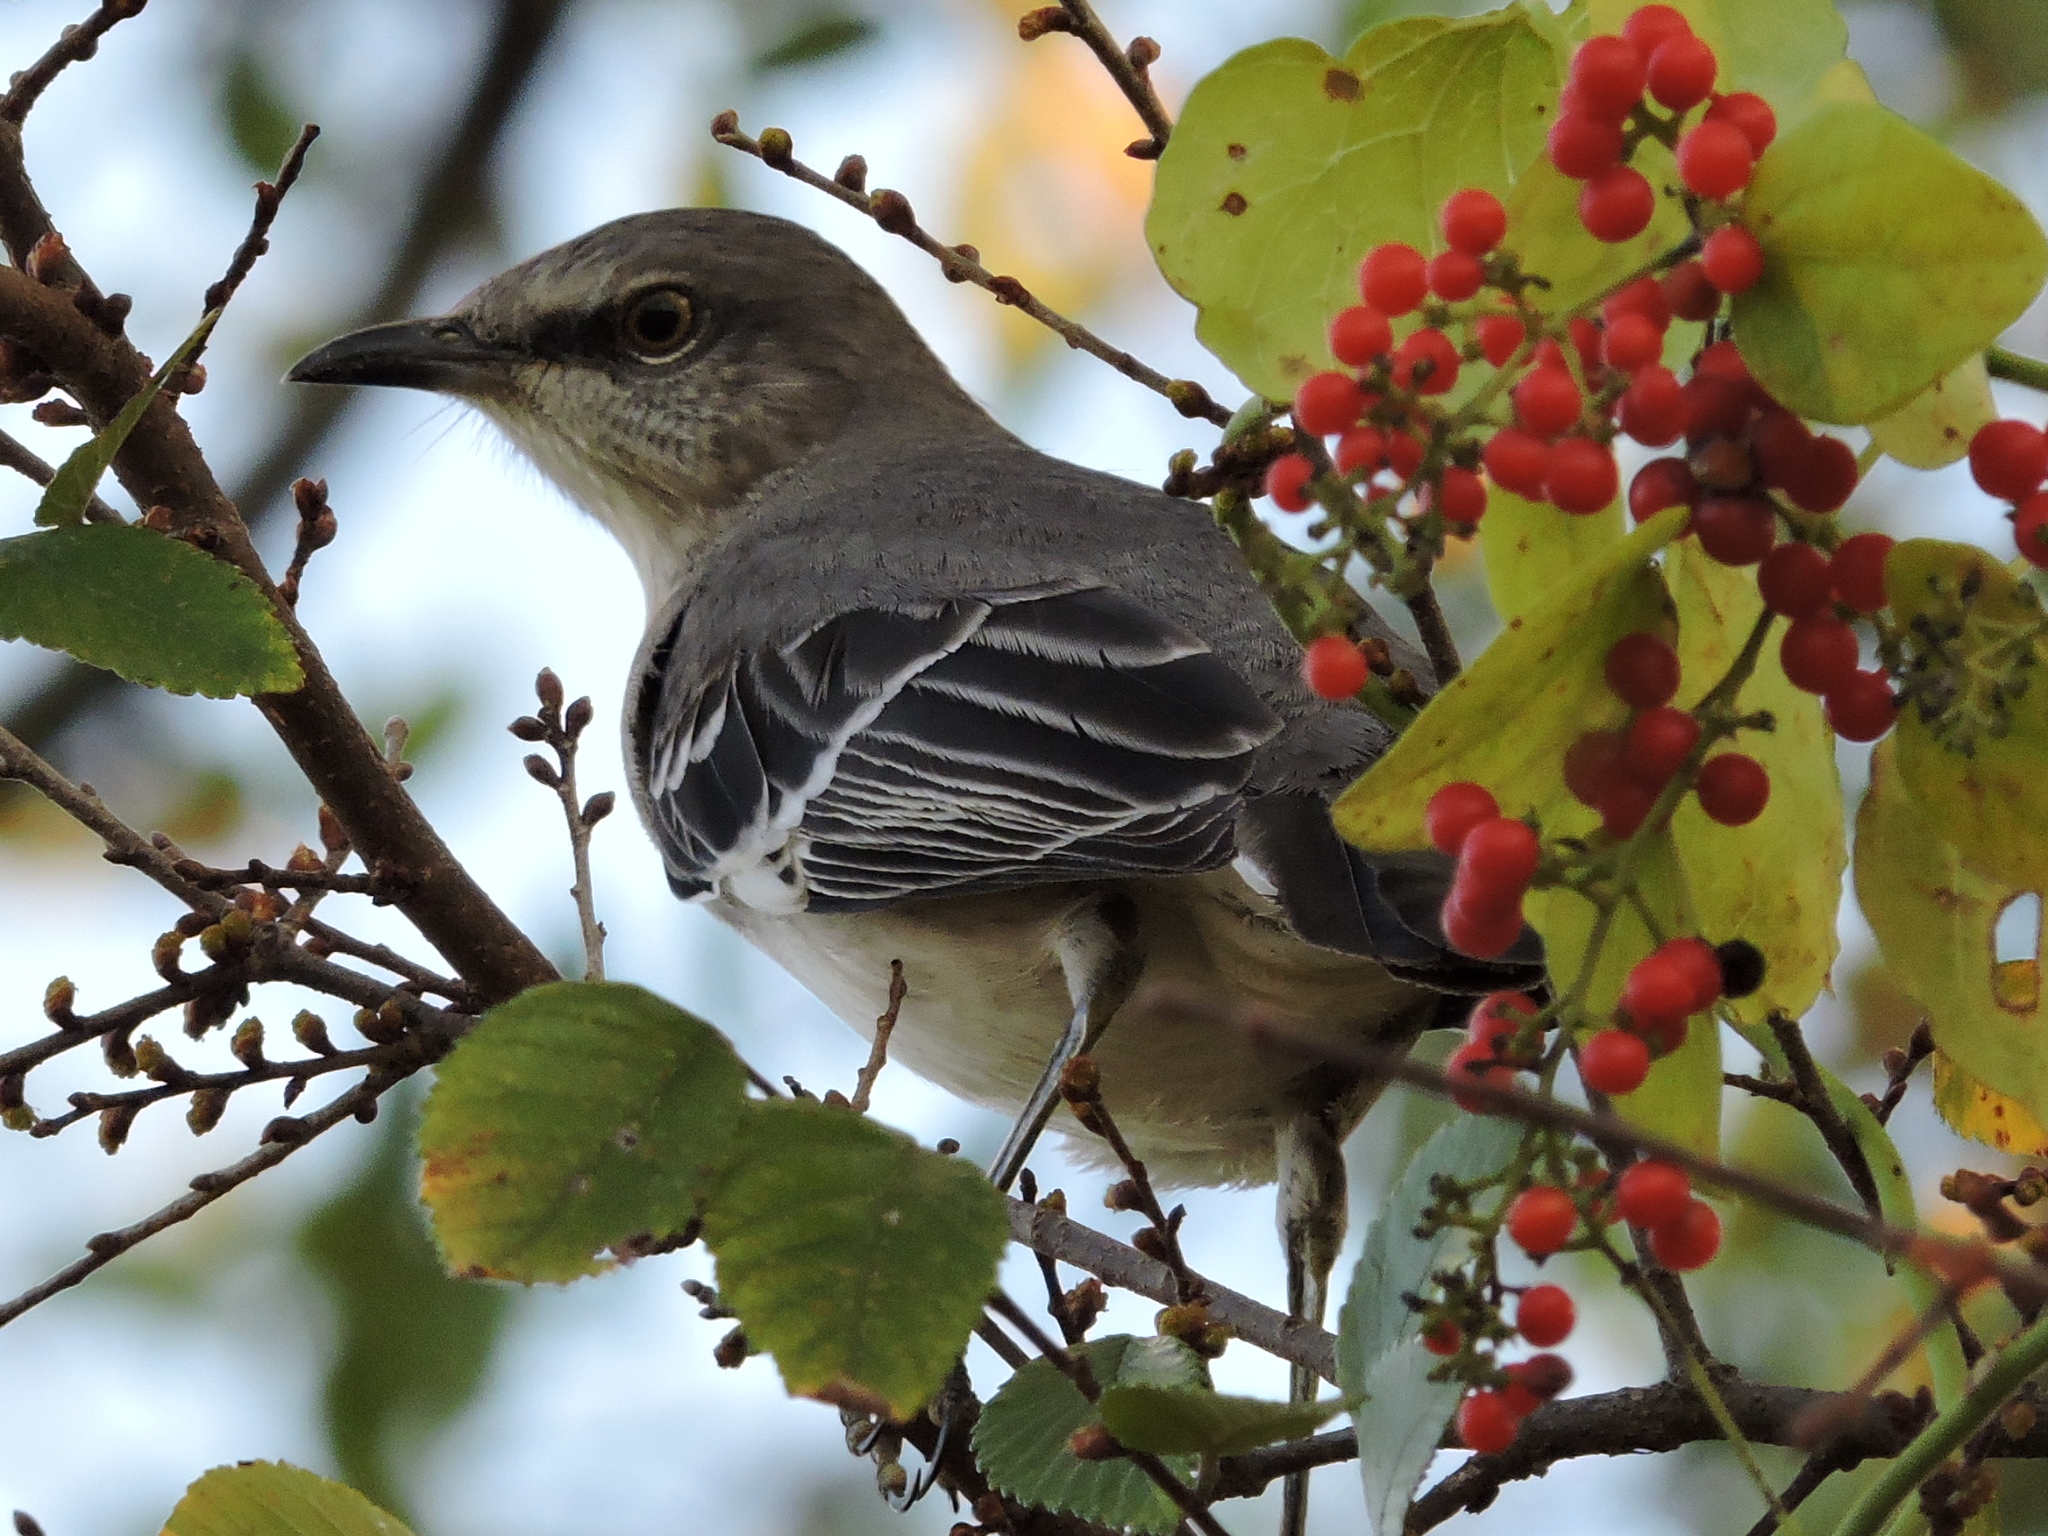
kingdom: Animalia
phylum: Chordata
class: Aves
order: Passeriformes
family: Mimidae
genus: Mimus
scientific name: Mimus polyglottos
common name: Northern mockingbird
